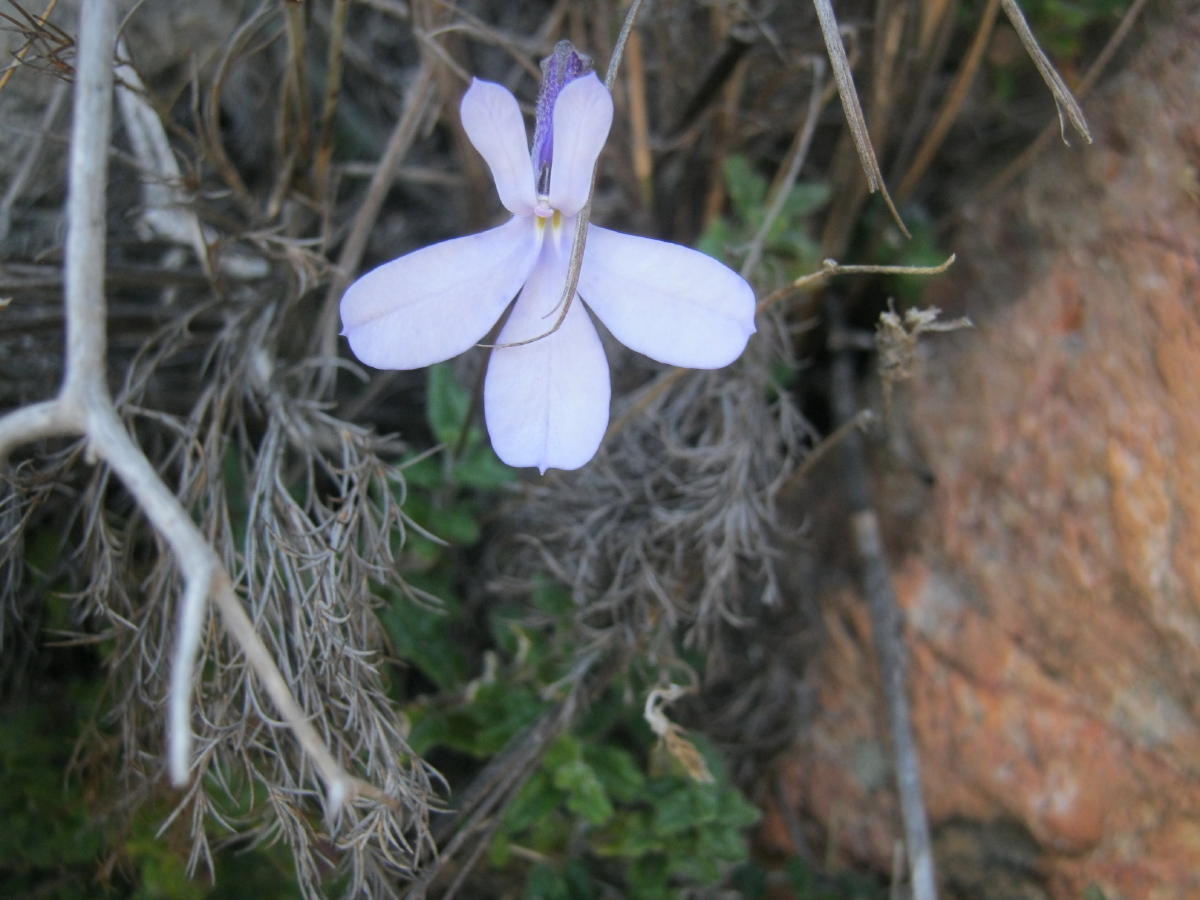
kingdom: Plantae
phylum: Tracheophyta
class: Magnoliopsida
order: Asterales
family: Campanulaceae
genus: Lobelia
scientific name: Lobelia dichroma
